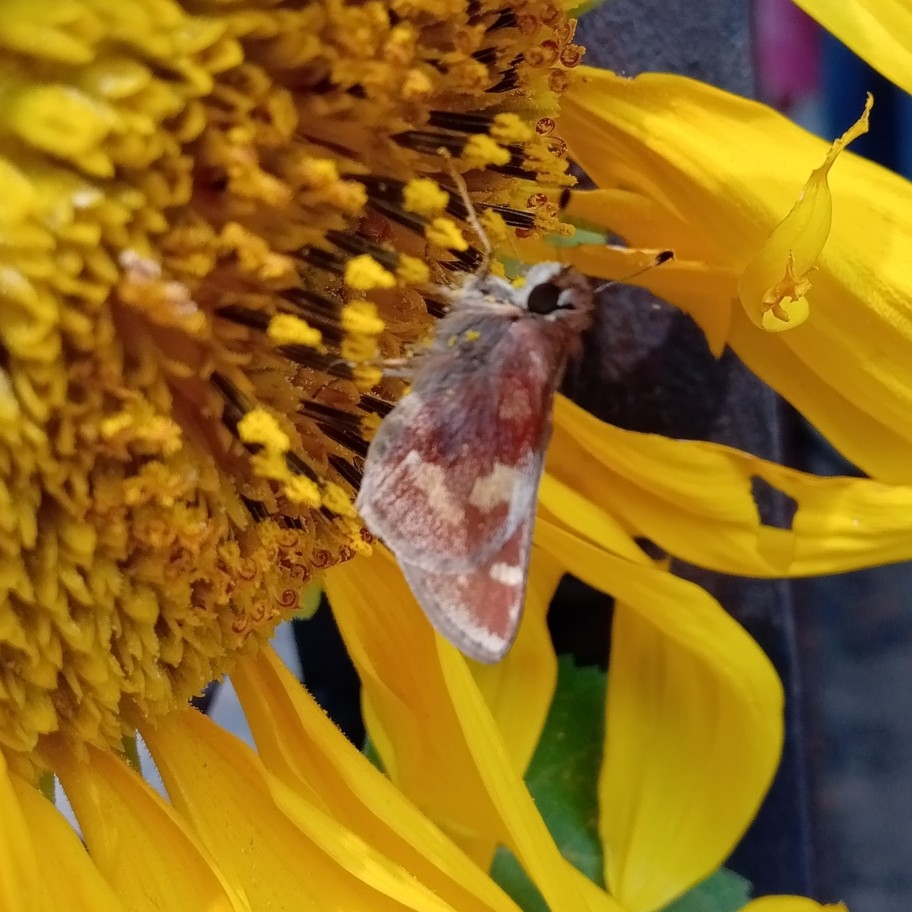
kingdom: Animalia
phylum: Arthropoda
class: Insecta
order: Lepidoptera
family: Hesperiidae
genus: Lon
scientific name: Lon
